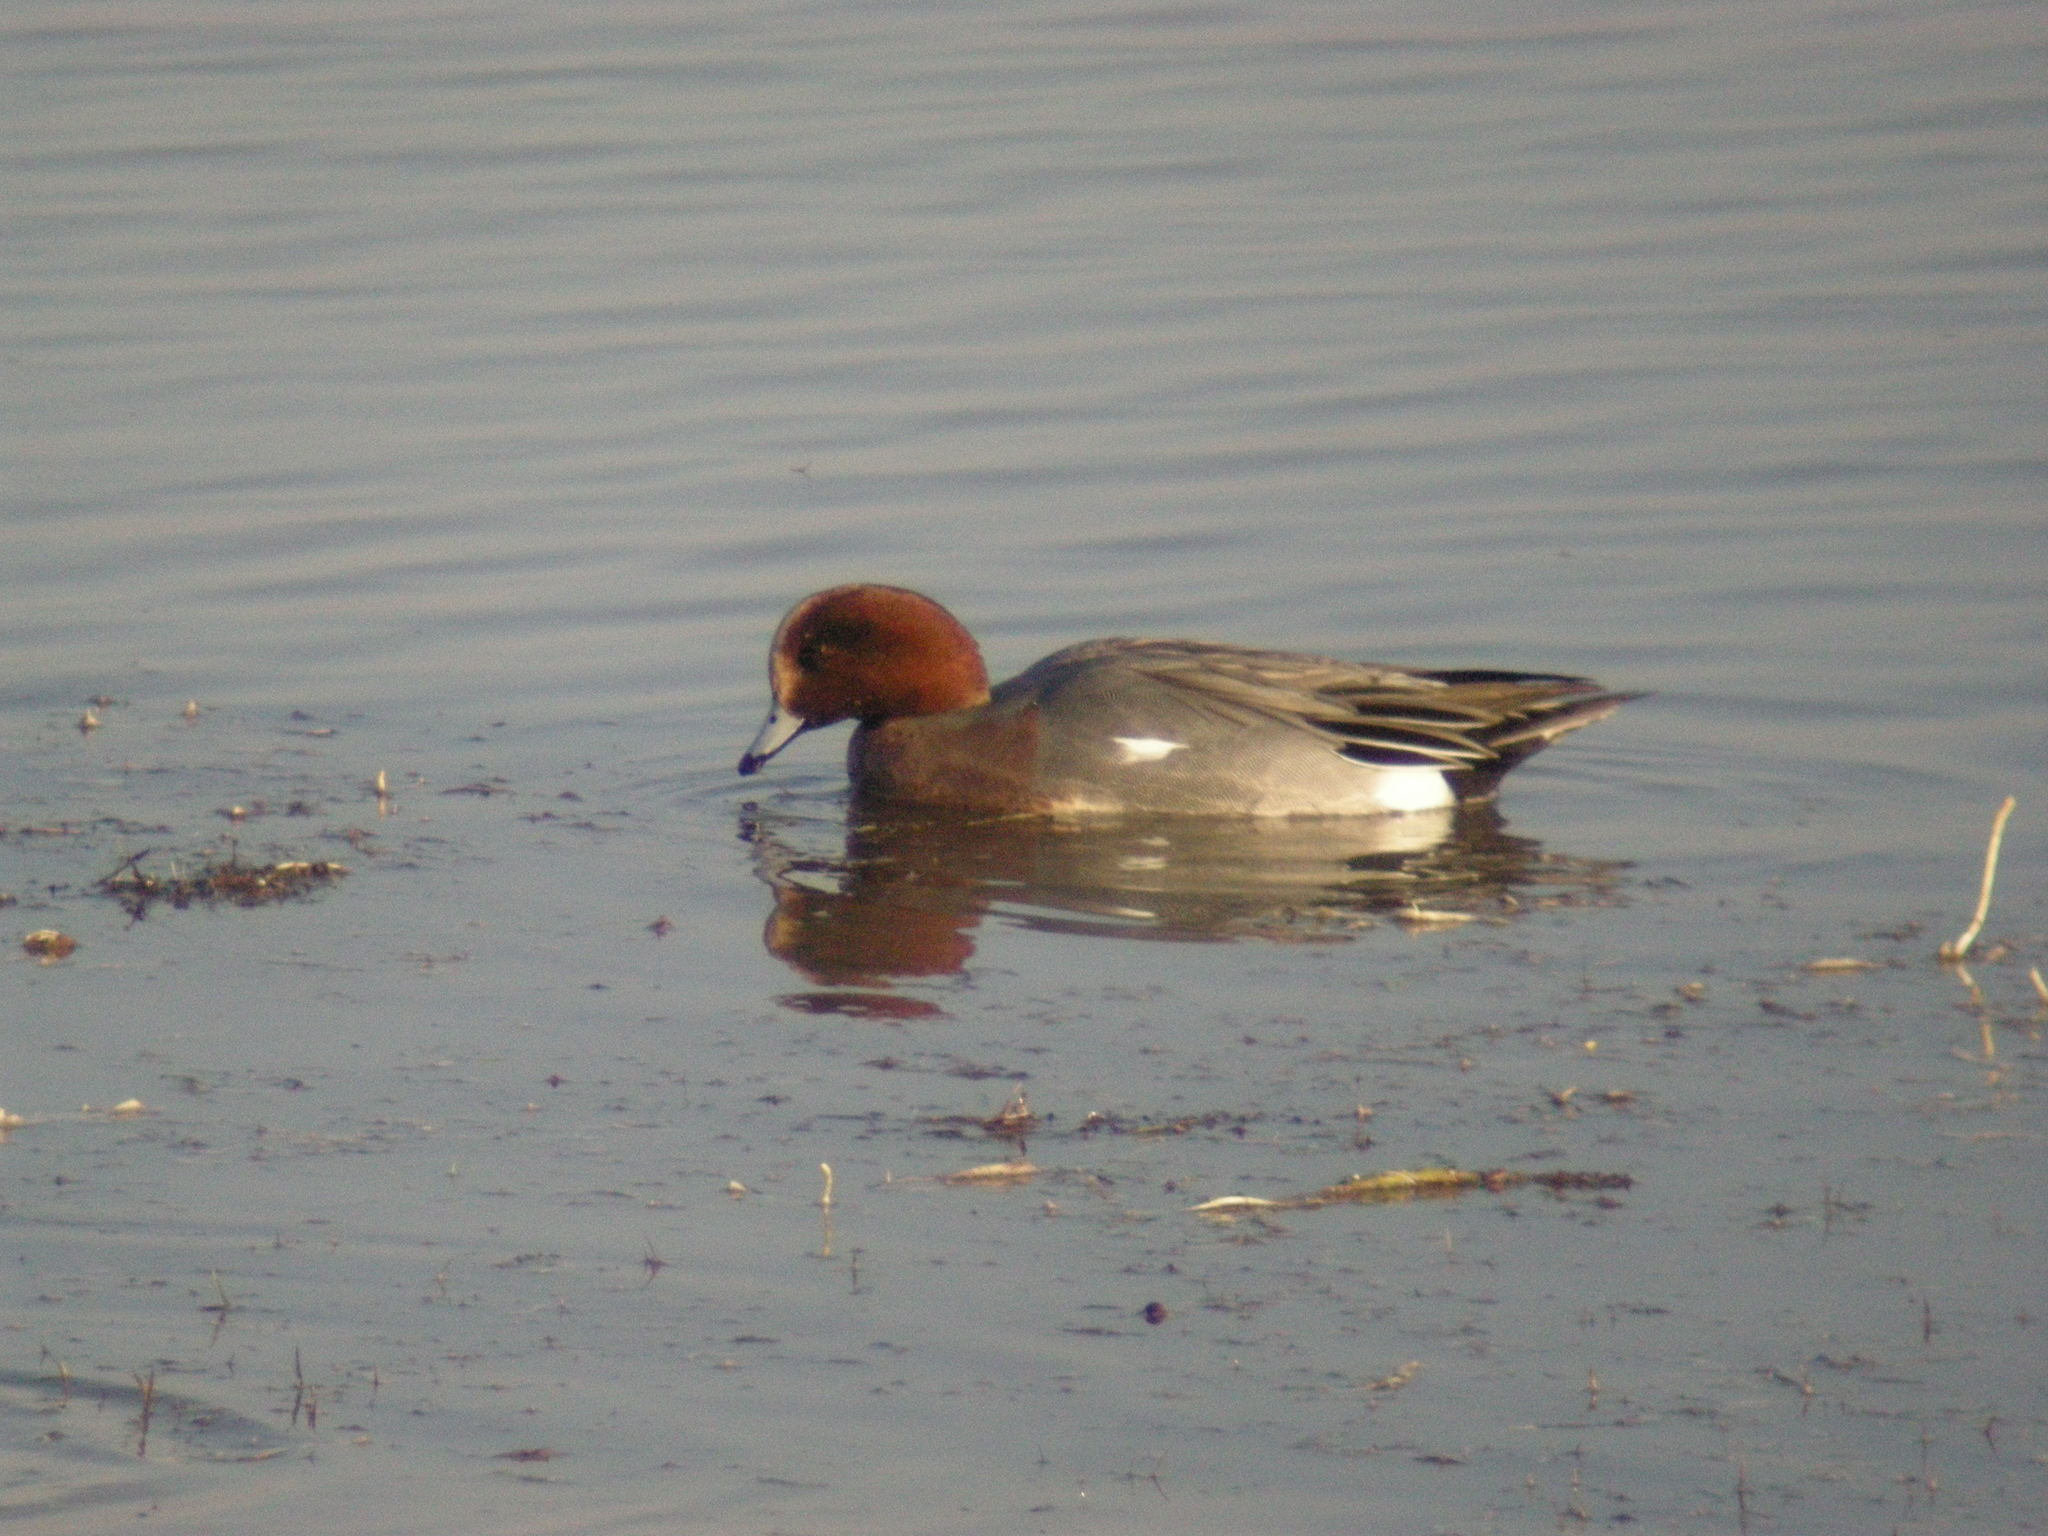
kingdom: Animalia
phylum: Chordata
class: Aves
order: Anseriformes
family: Anatidae
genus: Mareca
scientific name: Mareca penelope
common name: Eurasian wigeon
